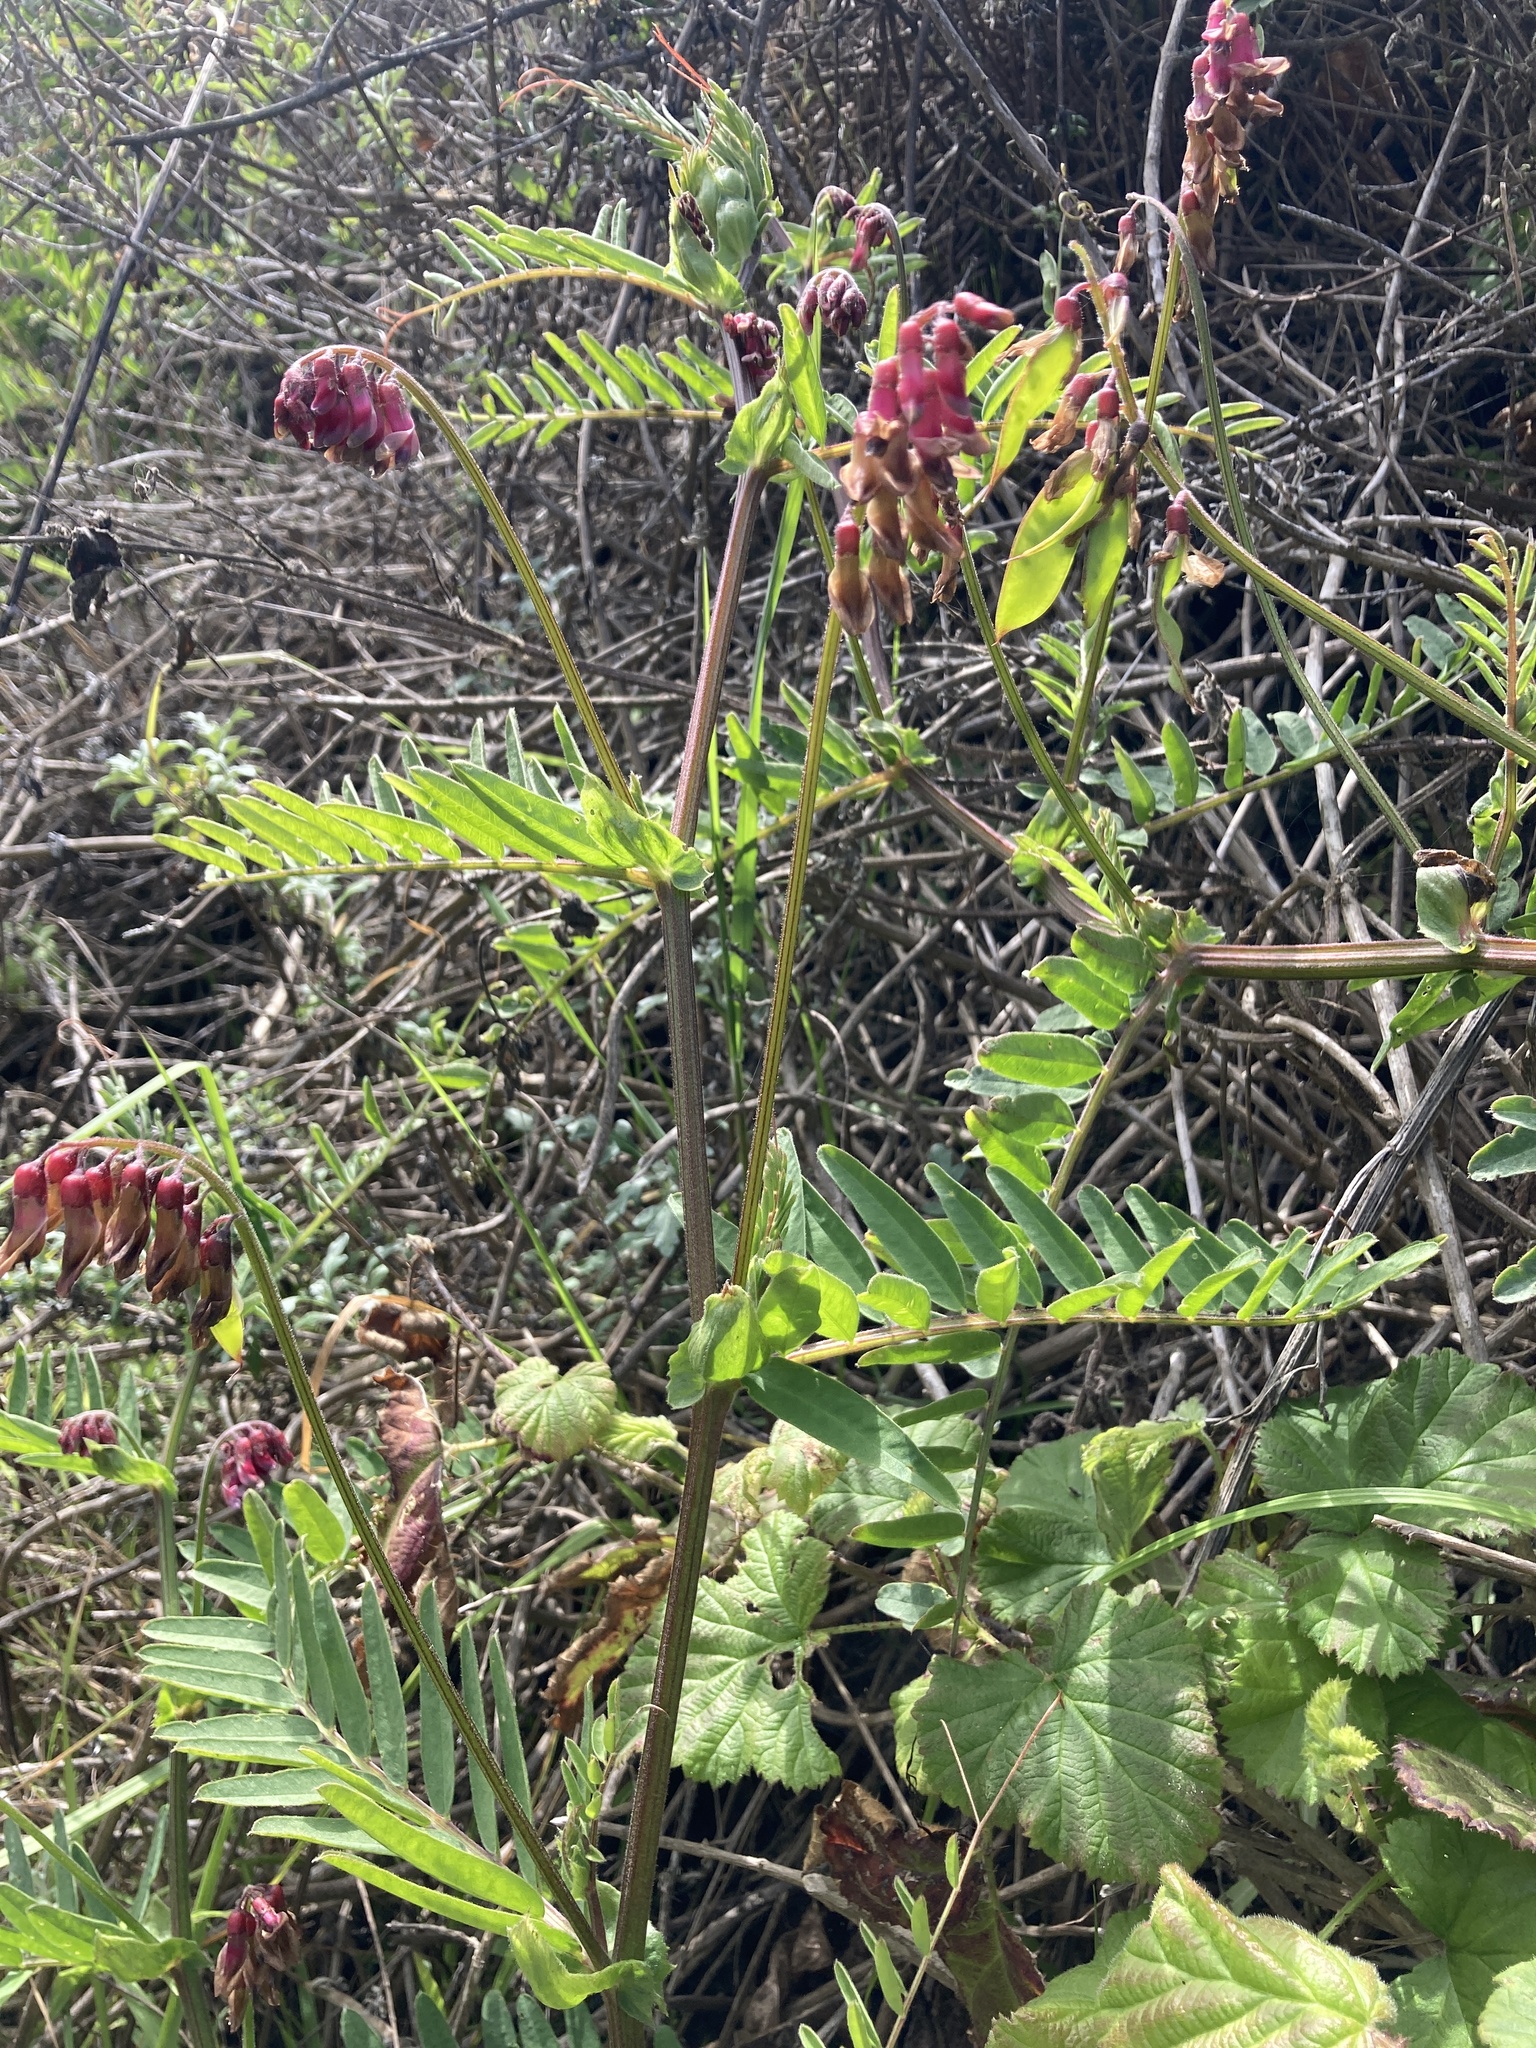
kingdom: Plantae
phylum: Tracheophyta
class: Magnoliopsida
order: Fabales
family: Fabaceae
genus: Vicia
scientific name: Vicia
